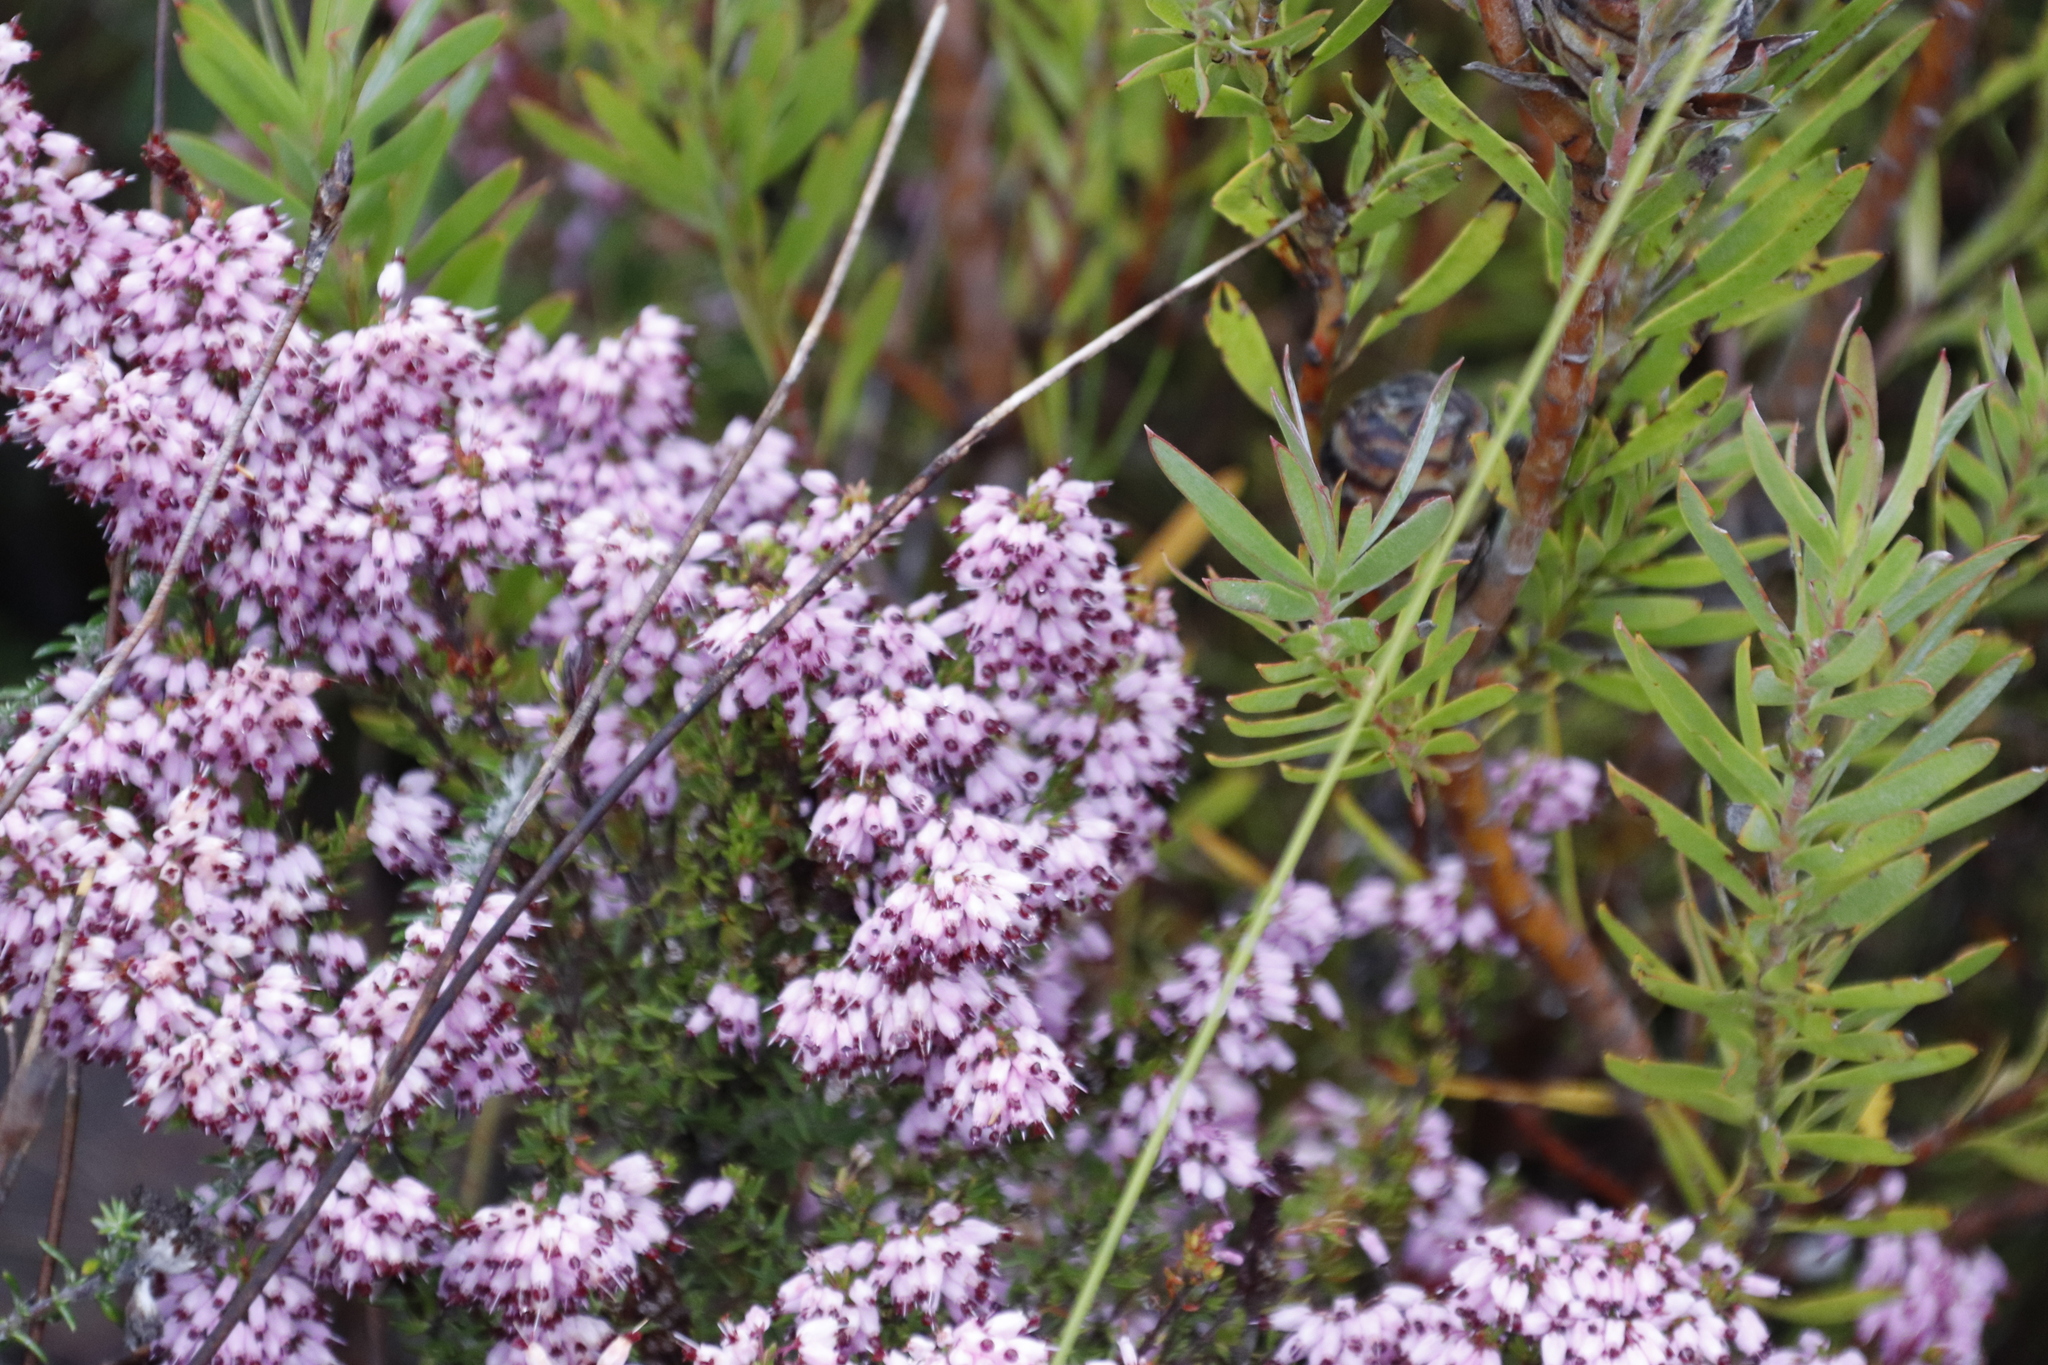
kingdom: Plantae
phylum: Tracheophyta
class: Magnoliopsida
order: Ericales
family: Ericaceae
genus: Erica
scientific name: Erica nudiflora
